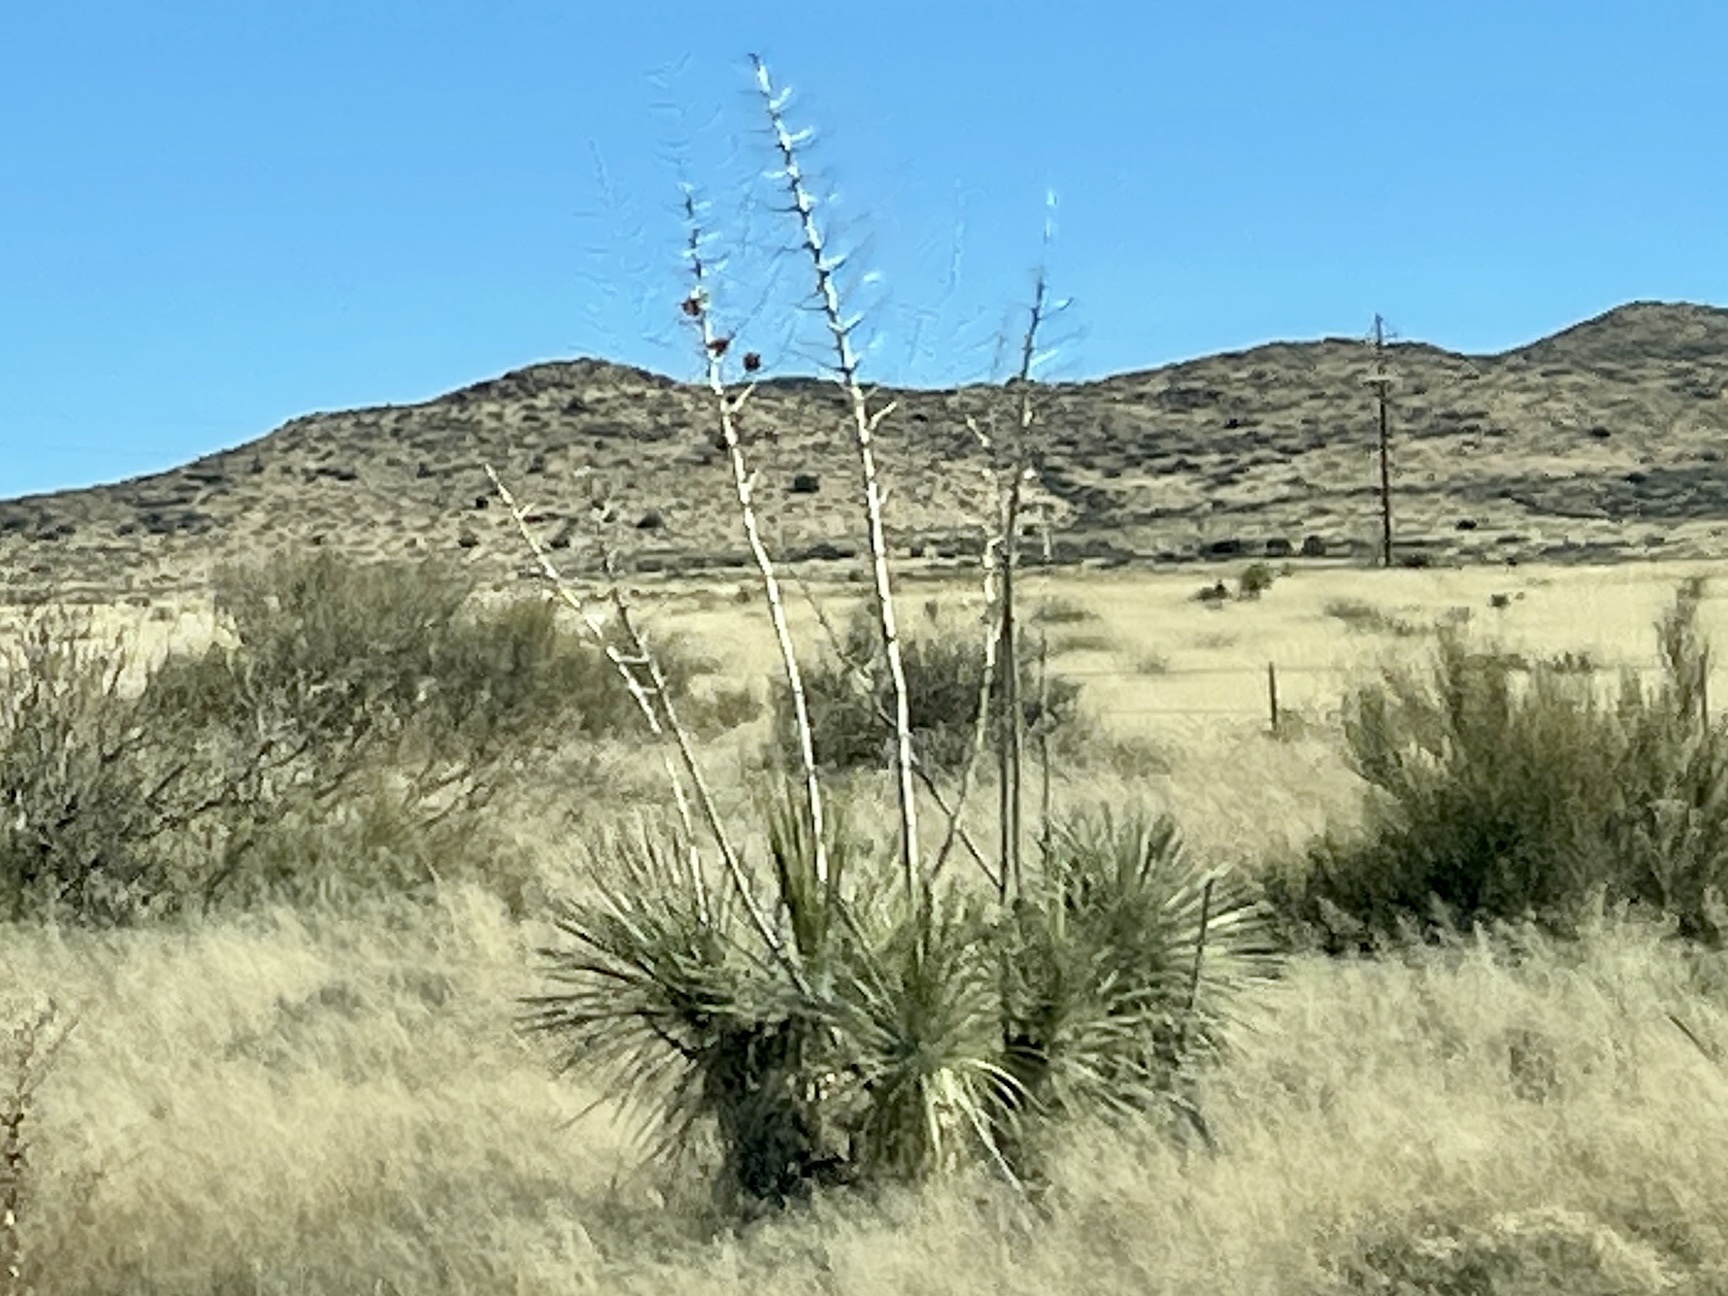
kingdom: Plantae
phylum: Tracheophyta
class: Liliopsida
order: Asparagales
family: Asparagaceae
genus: Yucca
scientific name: Yucca elata
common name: Palmella
